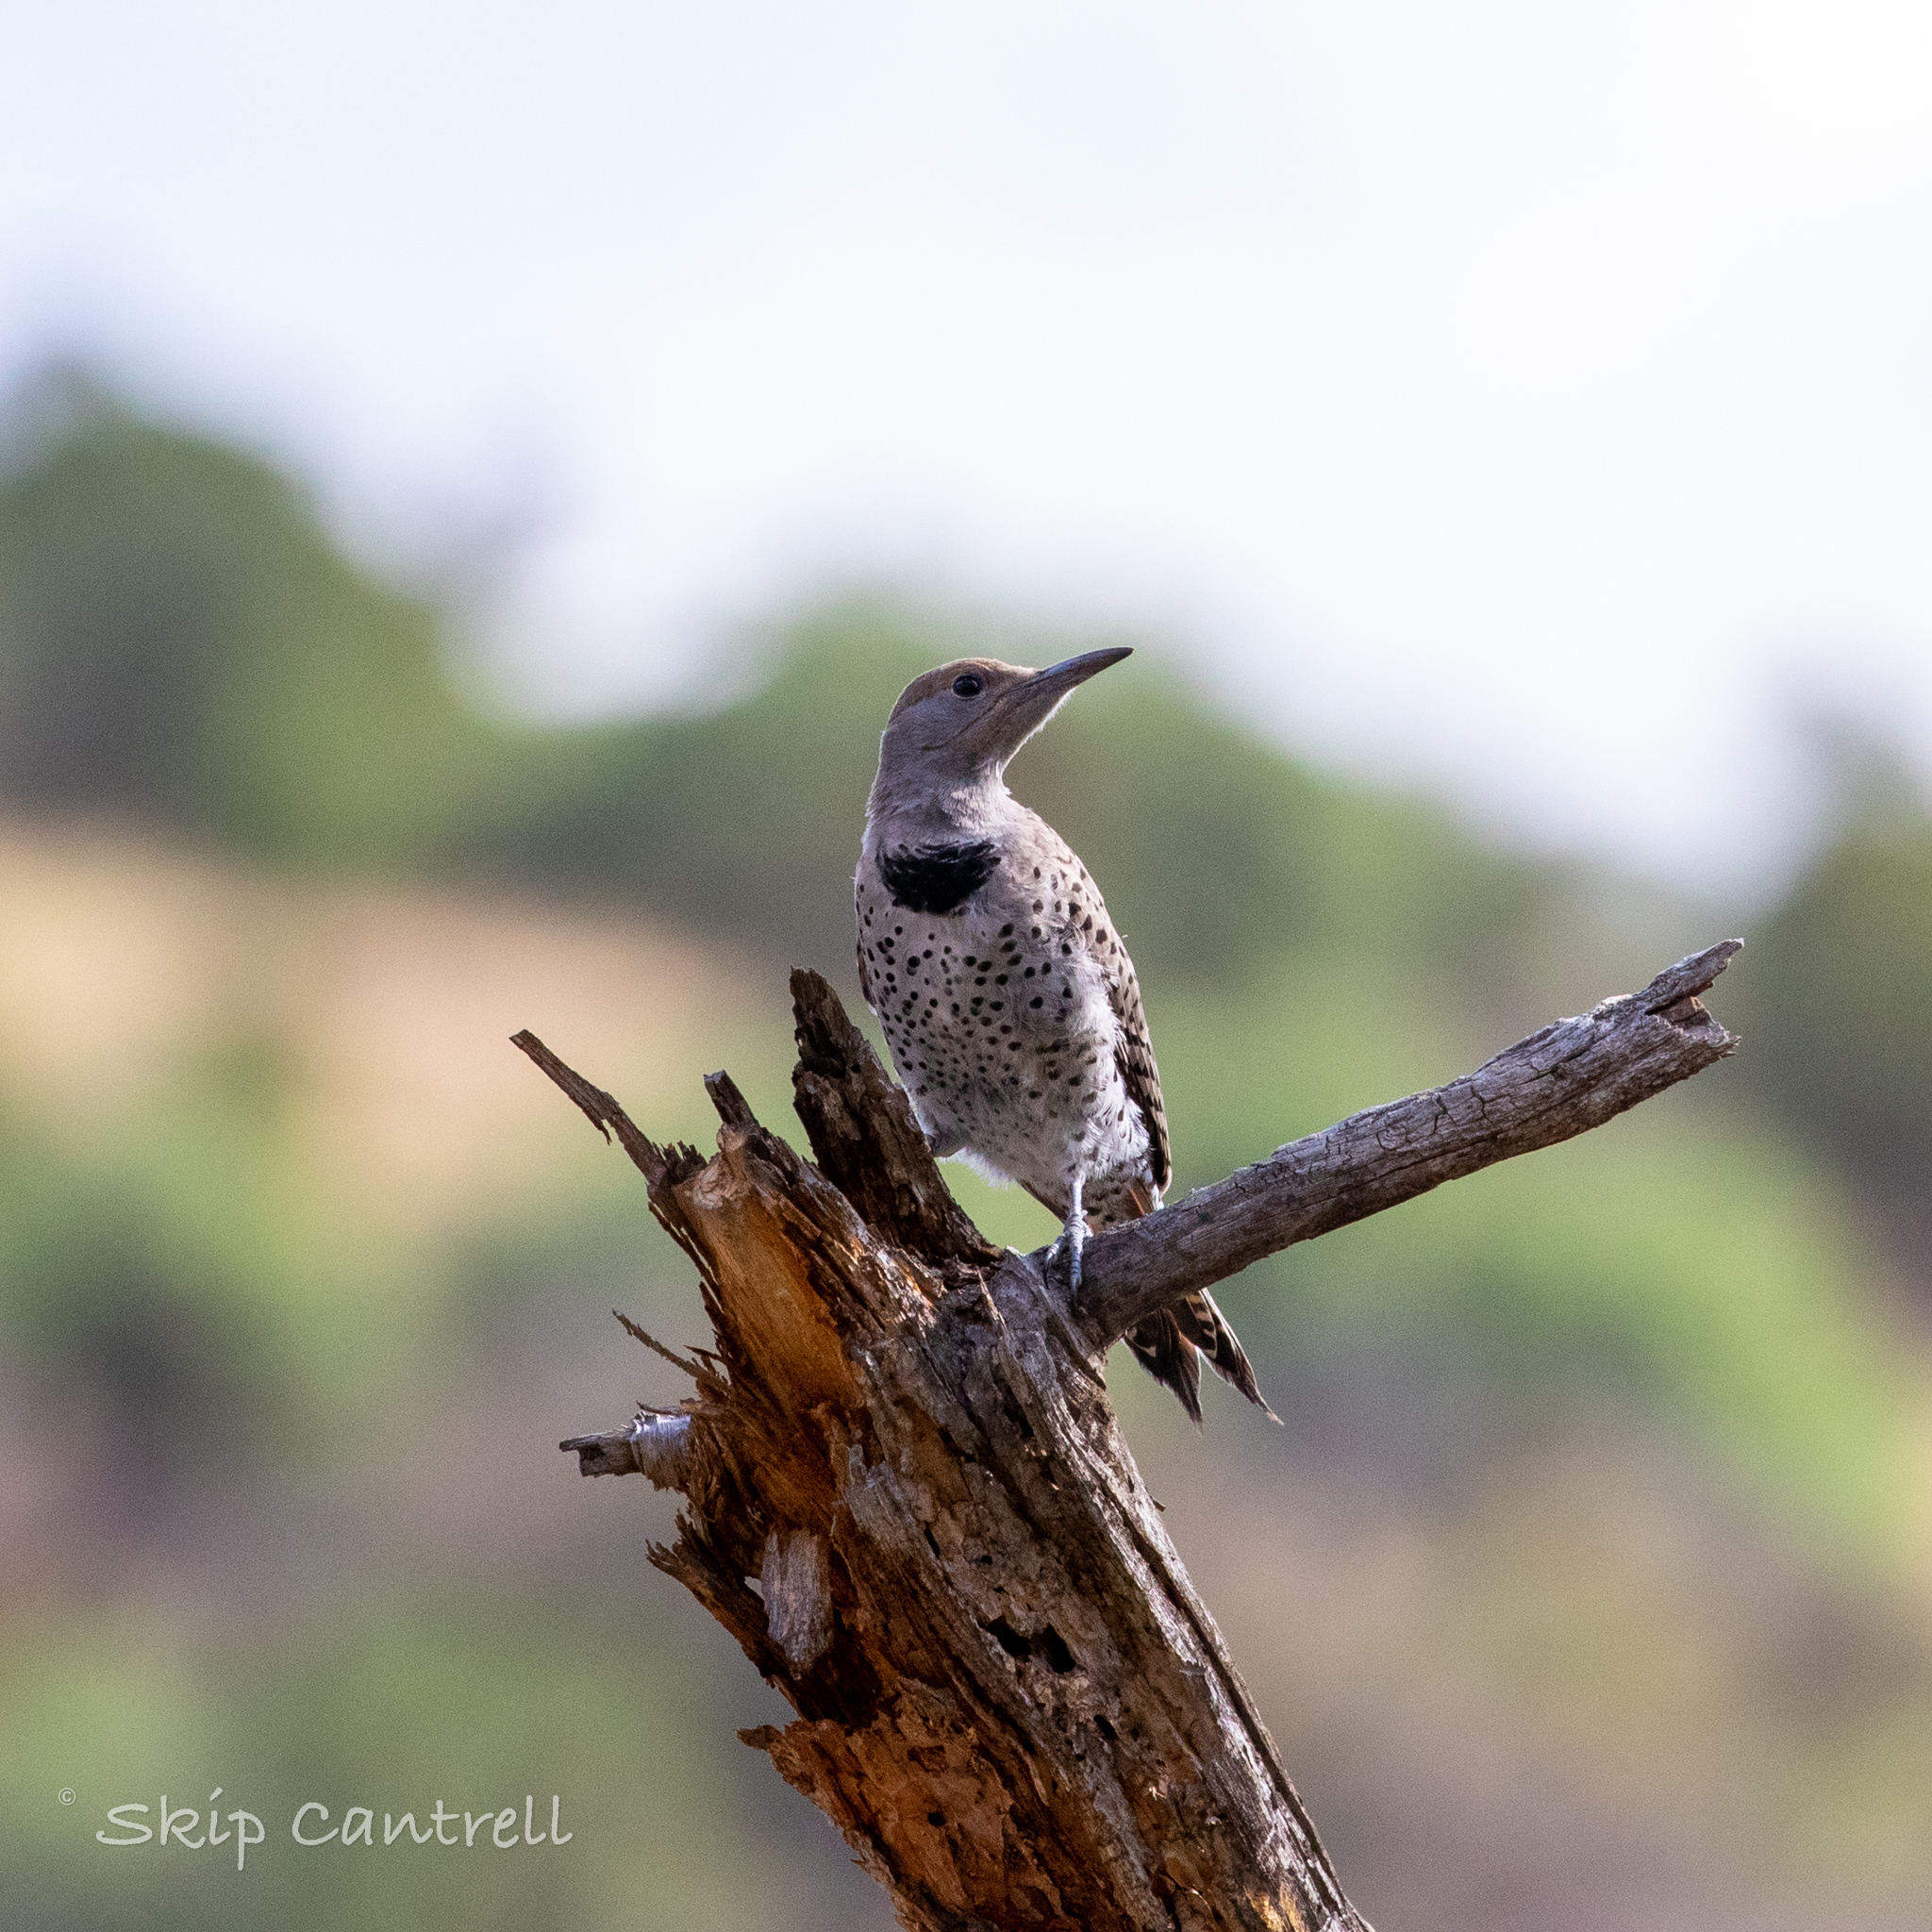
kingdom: Animalia
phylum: Chordata
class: Aves
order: Piciformes
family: Picidae
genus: Colaptes
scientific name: Colaptes auratus
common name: Northern flicker
